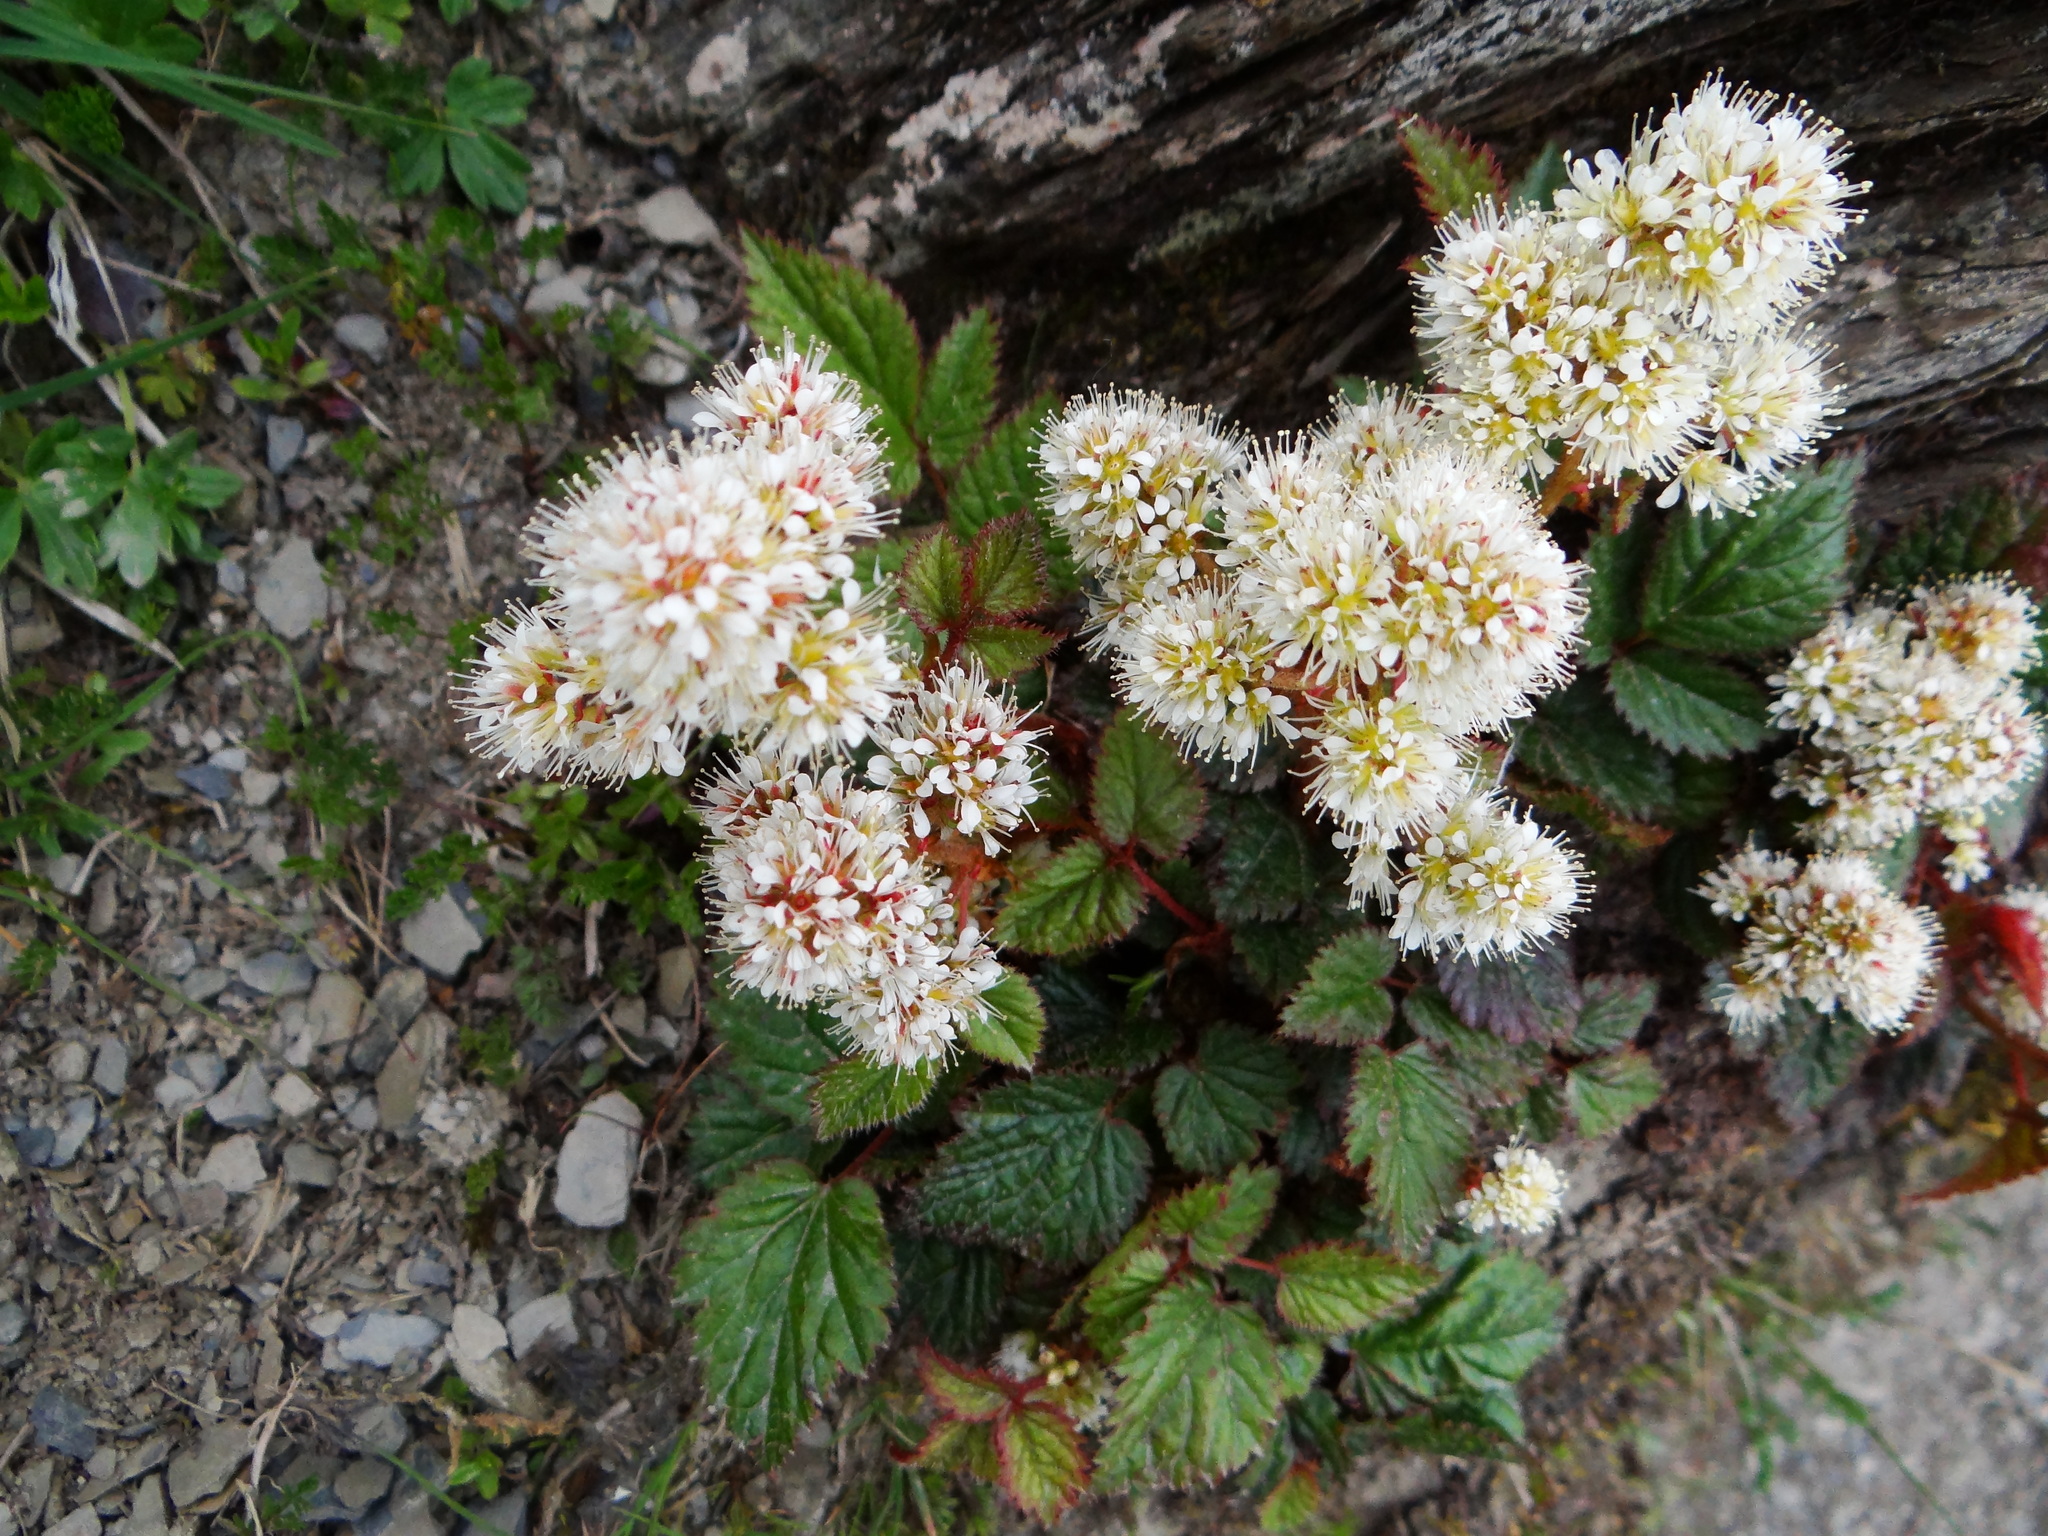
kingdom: Plantae
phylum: Tracheophyta
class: Magnoliopsida
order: Saxifragales
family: Saxifragaceae
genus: Astilbe
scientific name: Astilbe macroflora
